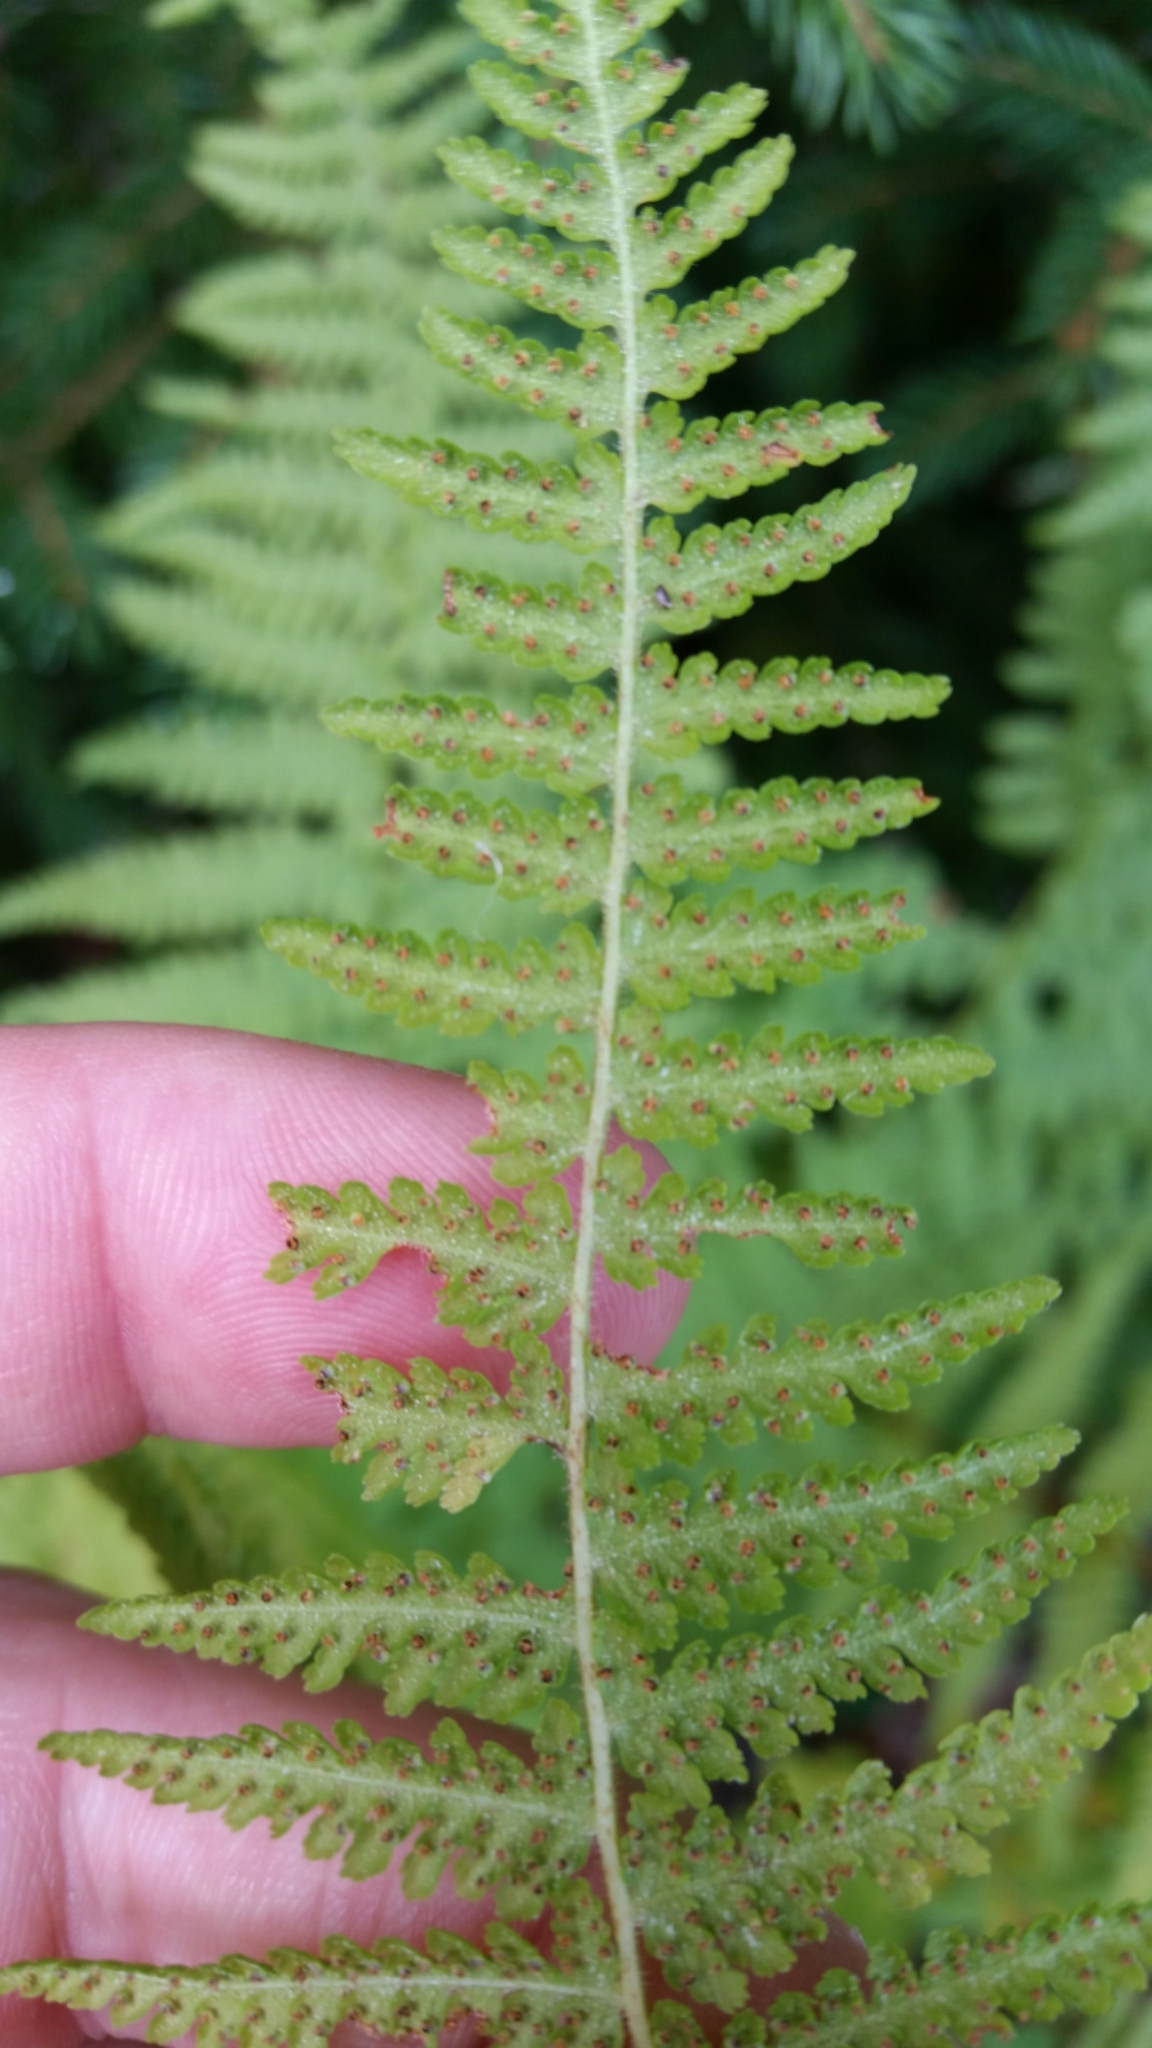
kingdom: Plantae
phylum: Tracheophyta
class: Polypodiopsida
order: Polypodiales
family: Dennstaedtiaceae
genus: Sitobolium
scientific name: Sitobolium punctilobum
